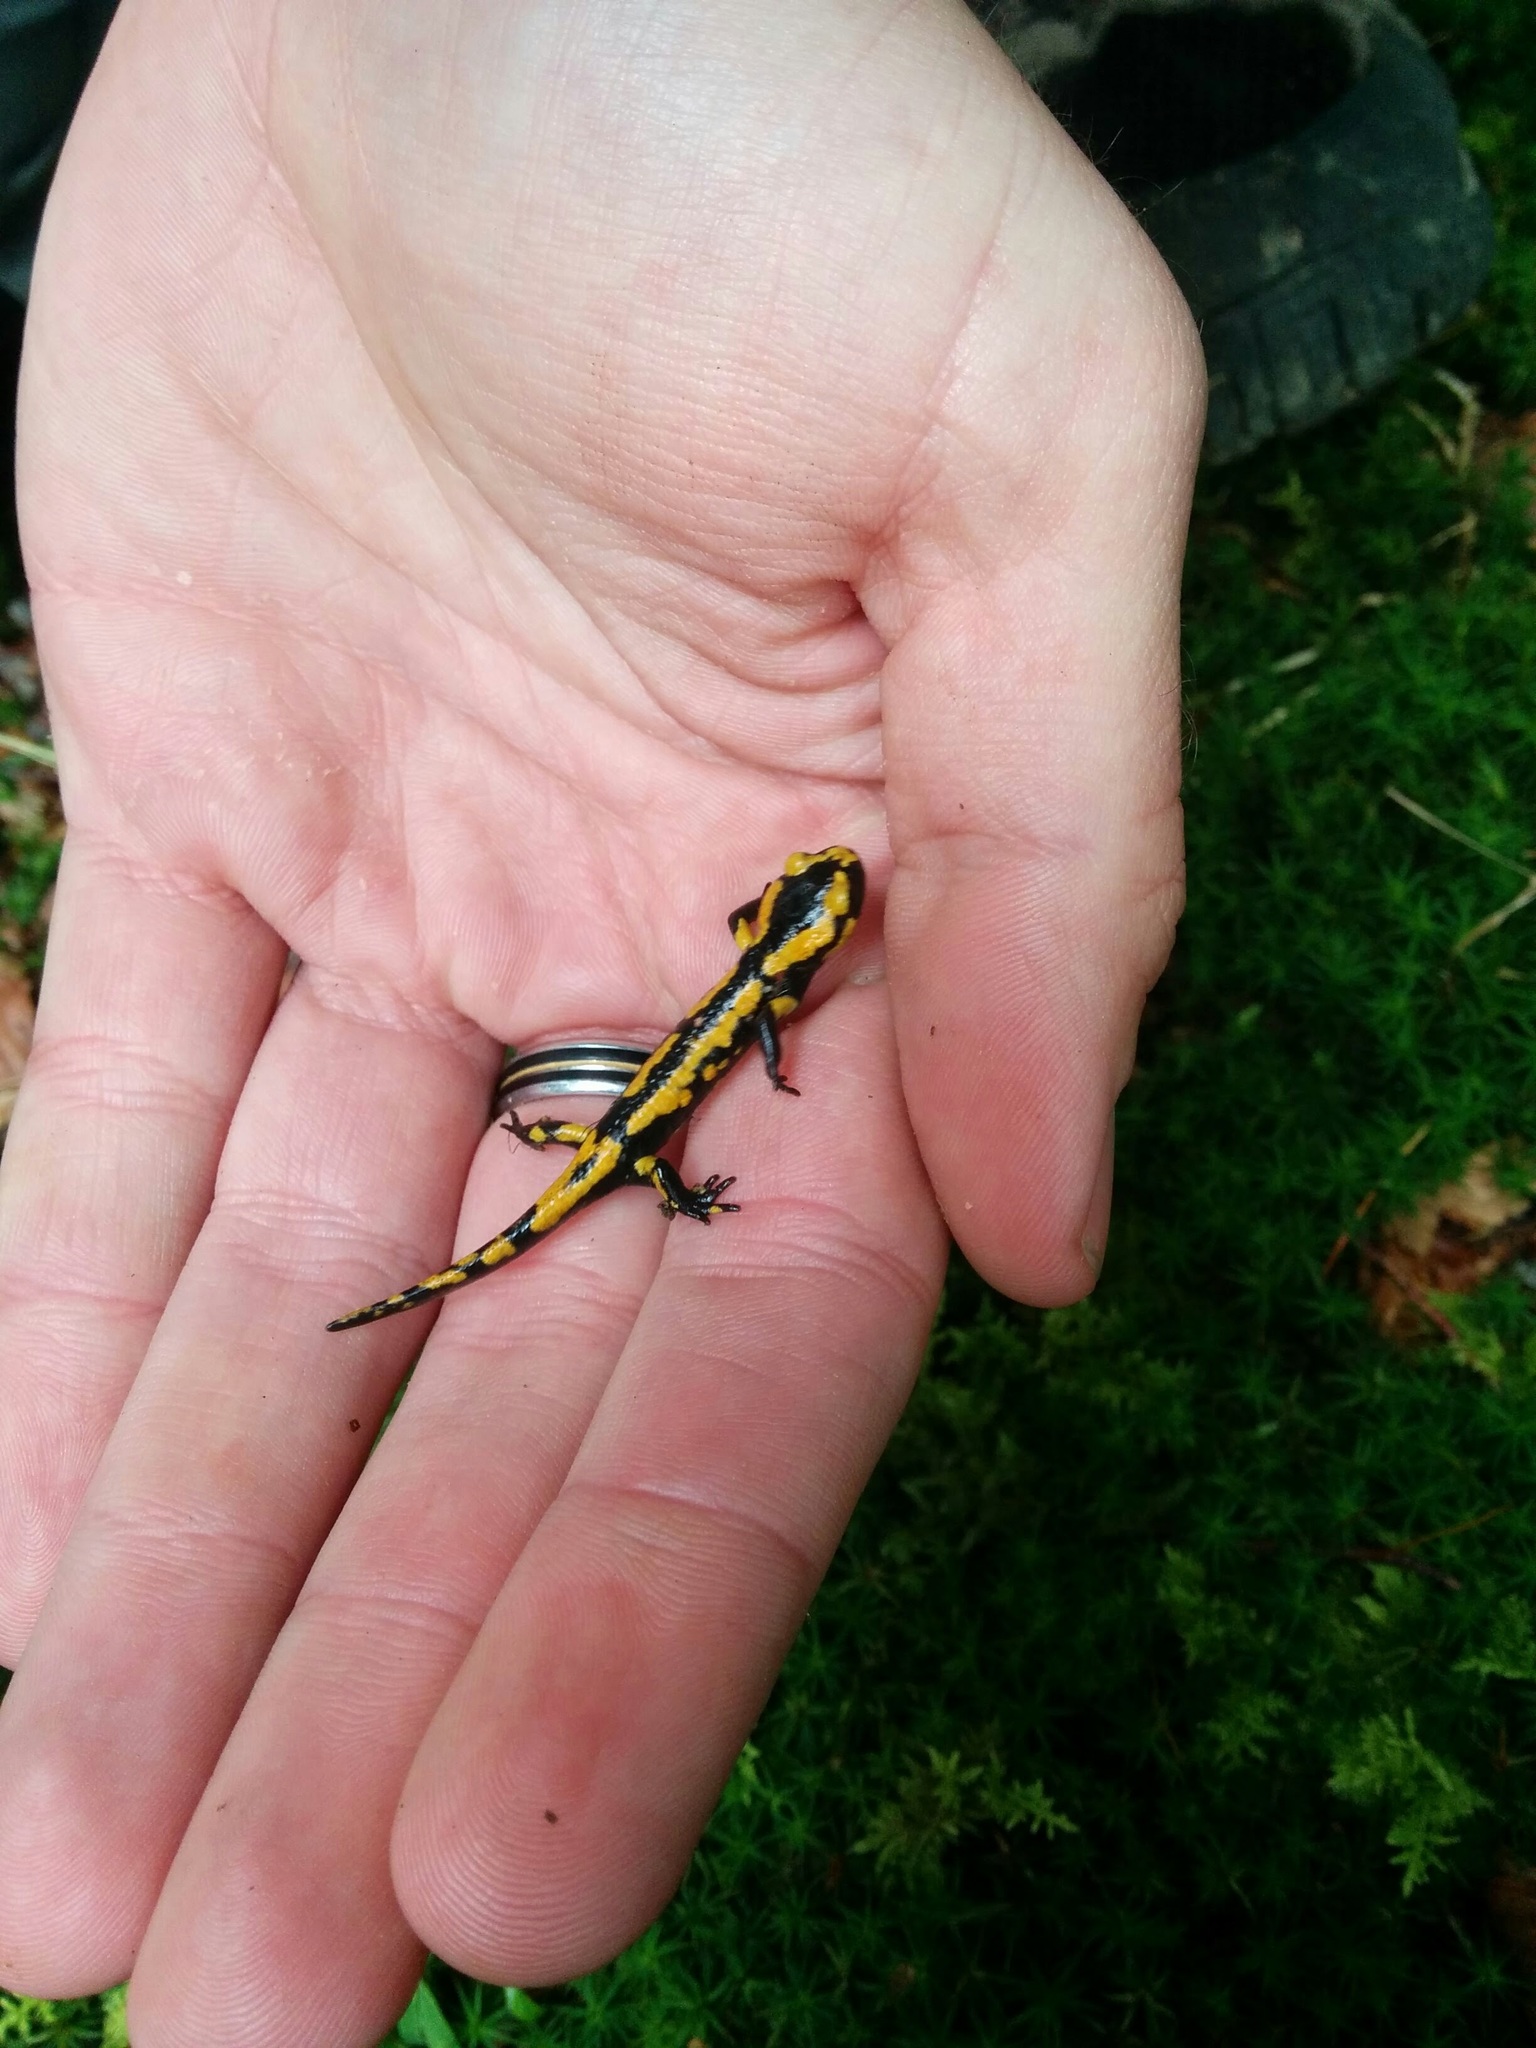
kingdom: Animalia
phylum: Chordata
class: Amphibia
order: Caudata
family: Salamandridae
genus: Salamandra
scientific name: Salamandra salamandra
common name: Fire salamander
